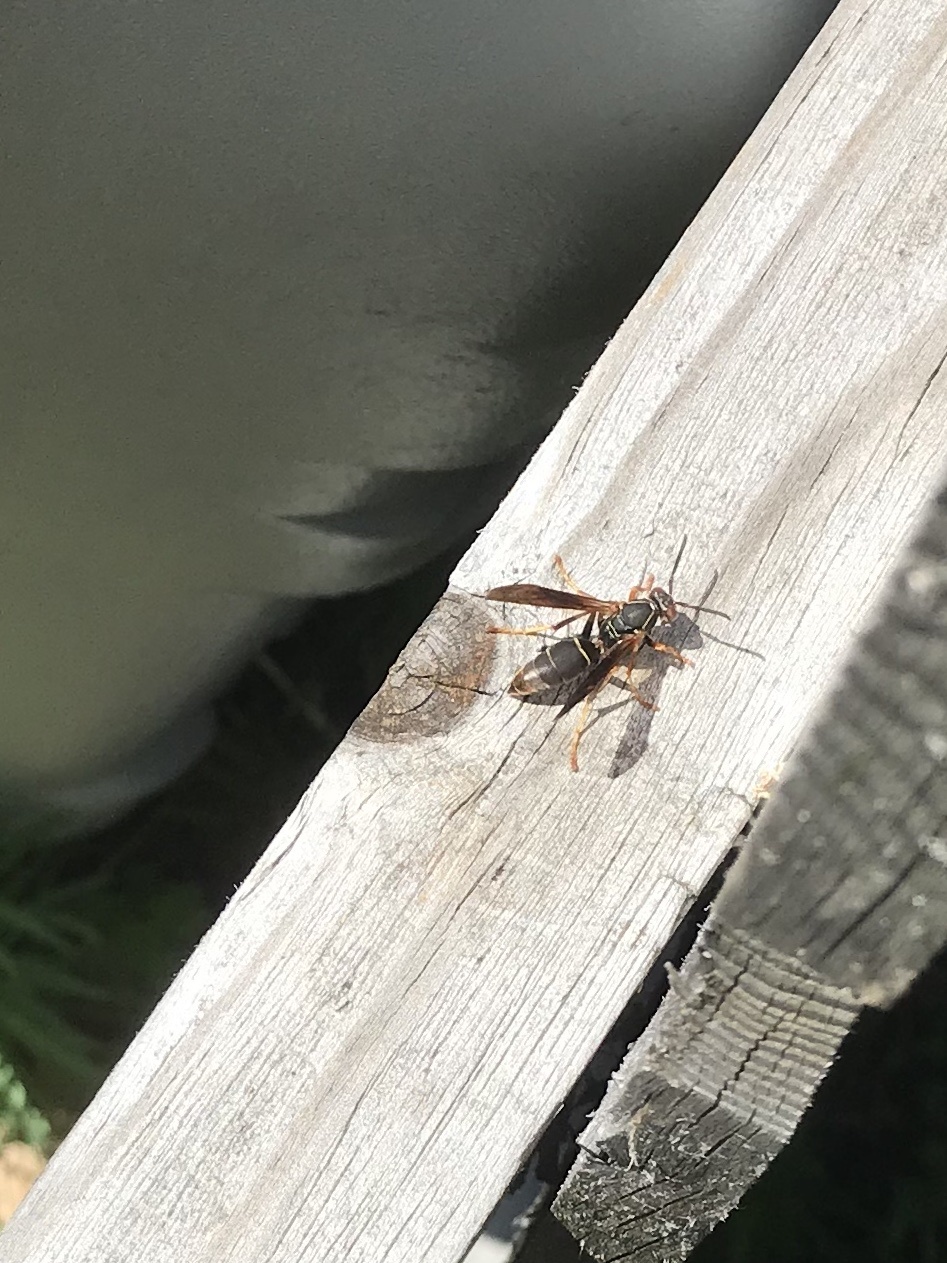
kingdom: Animalia
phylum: Arthropoda
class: Insecta
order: Hymenoptera
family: Eumenidae
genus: Polistes
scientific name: Polistes fuscatus
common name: Dark paper wasp
